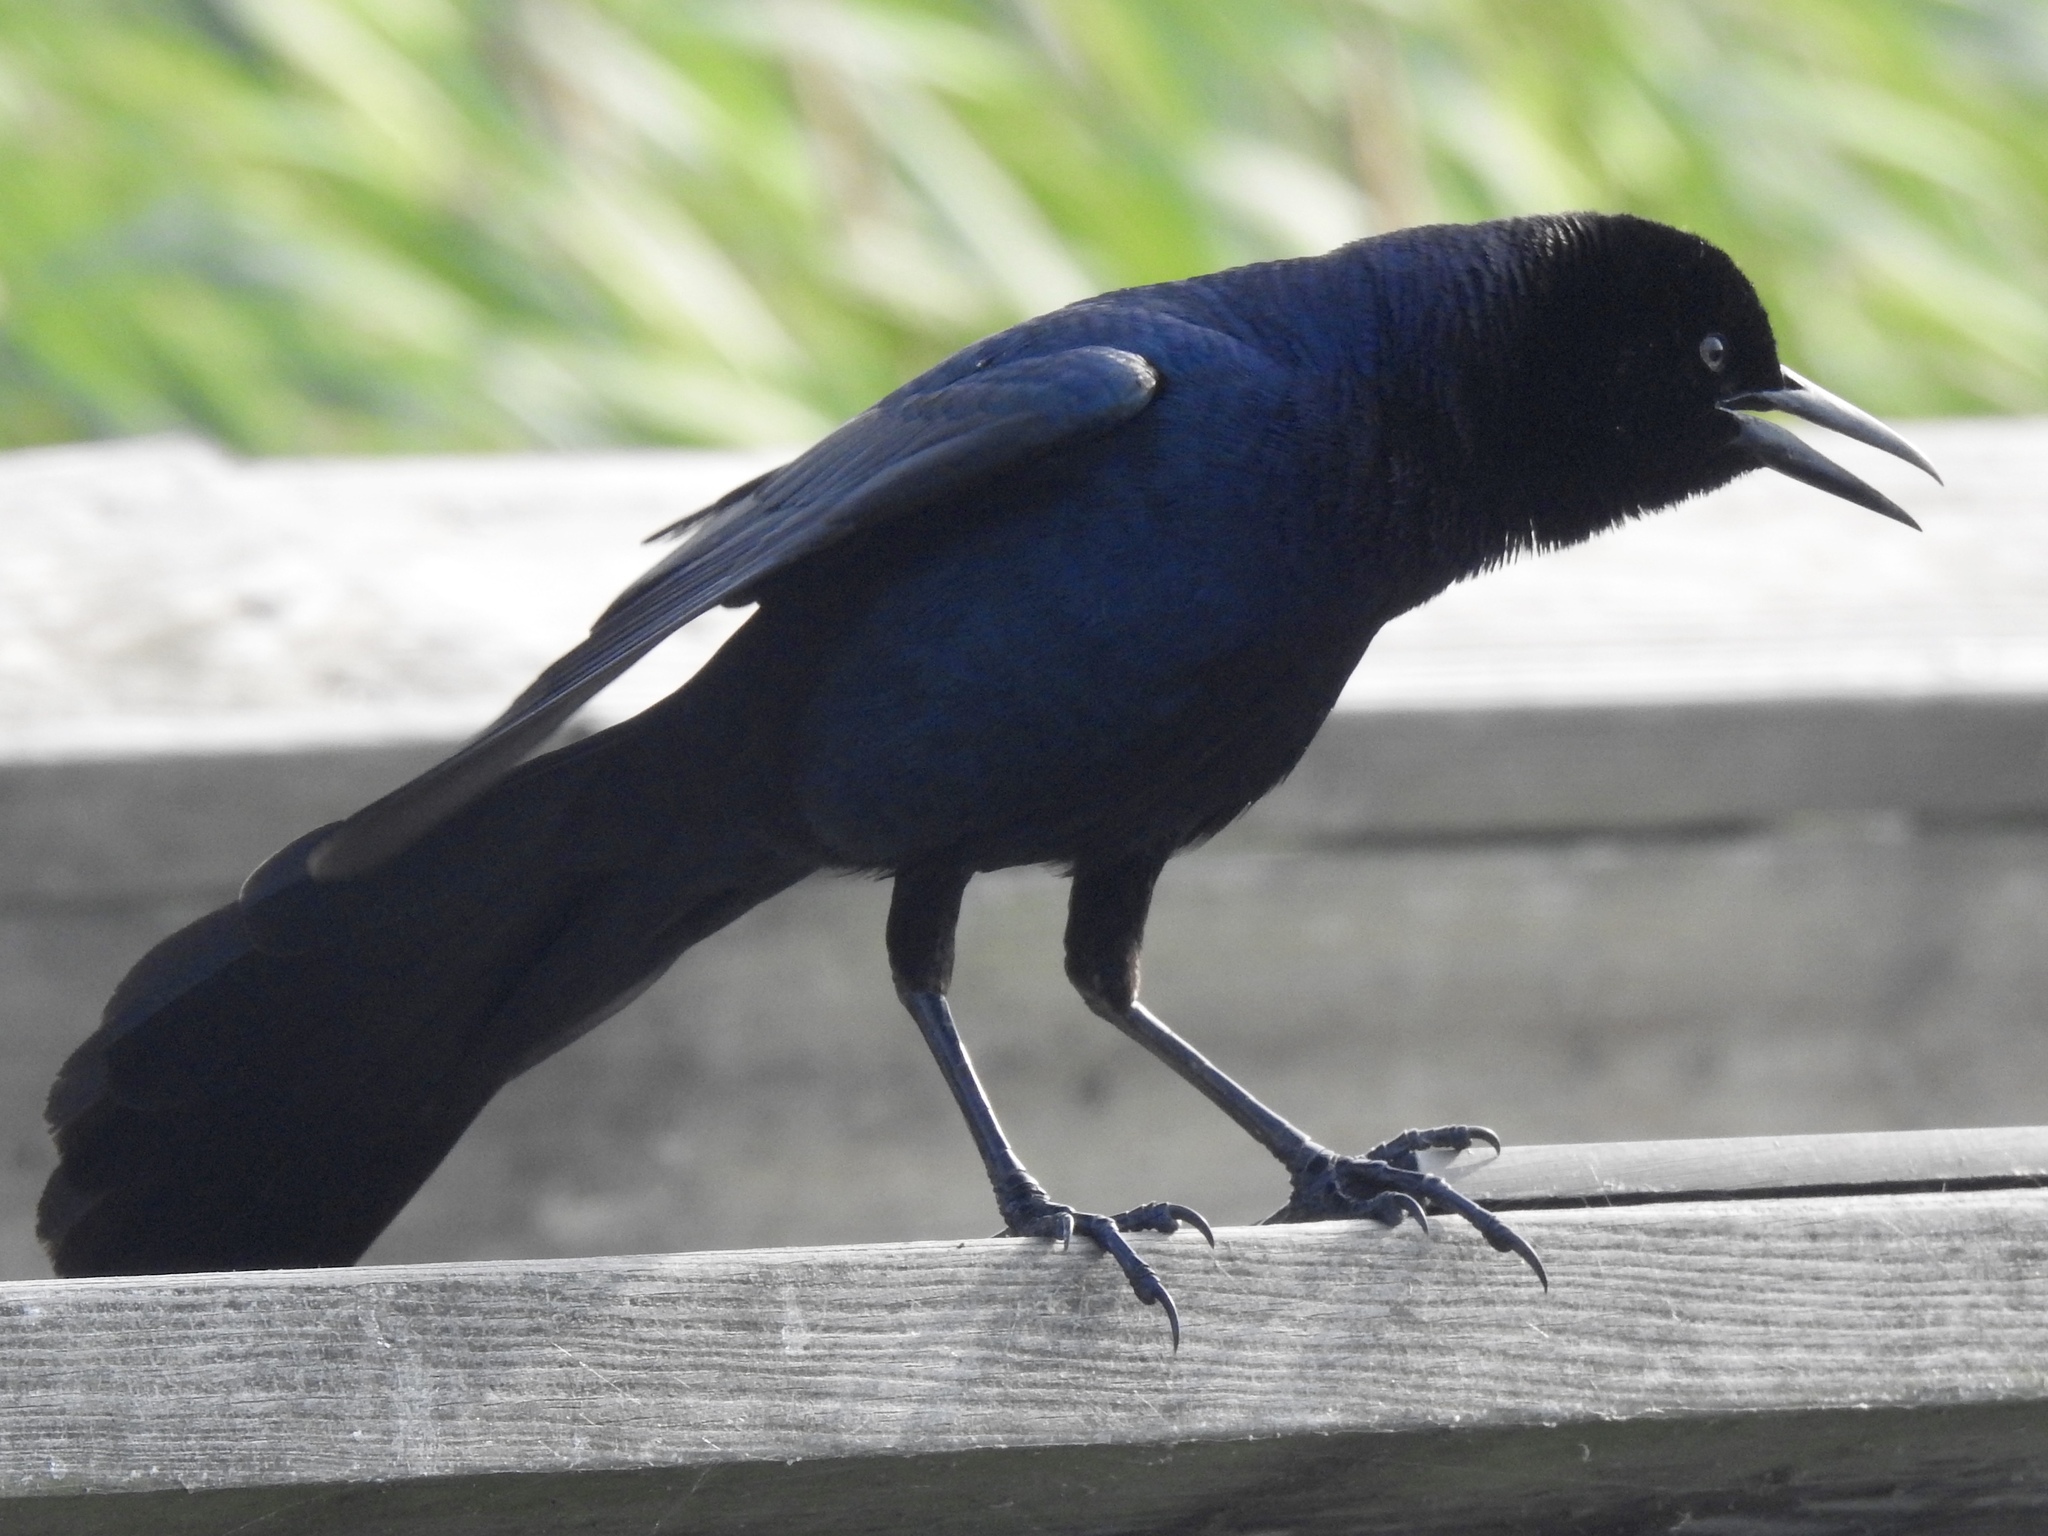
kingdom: Animalia
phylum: Chordata
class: Aves
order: Passeriformes
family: Icteridae
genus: Quiscalus
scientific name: Quiscalus major
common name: Boat-tailed grackle
